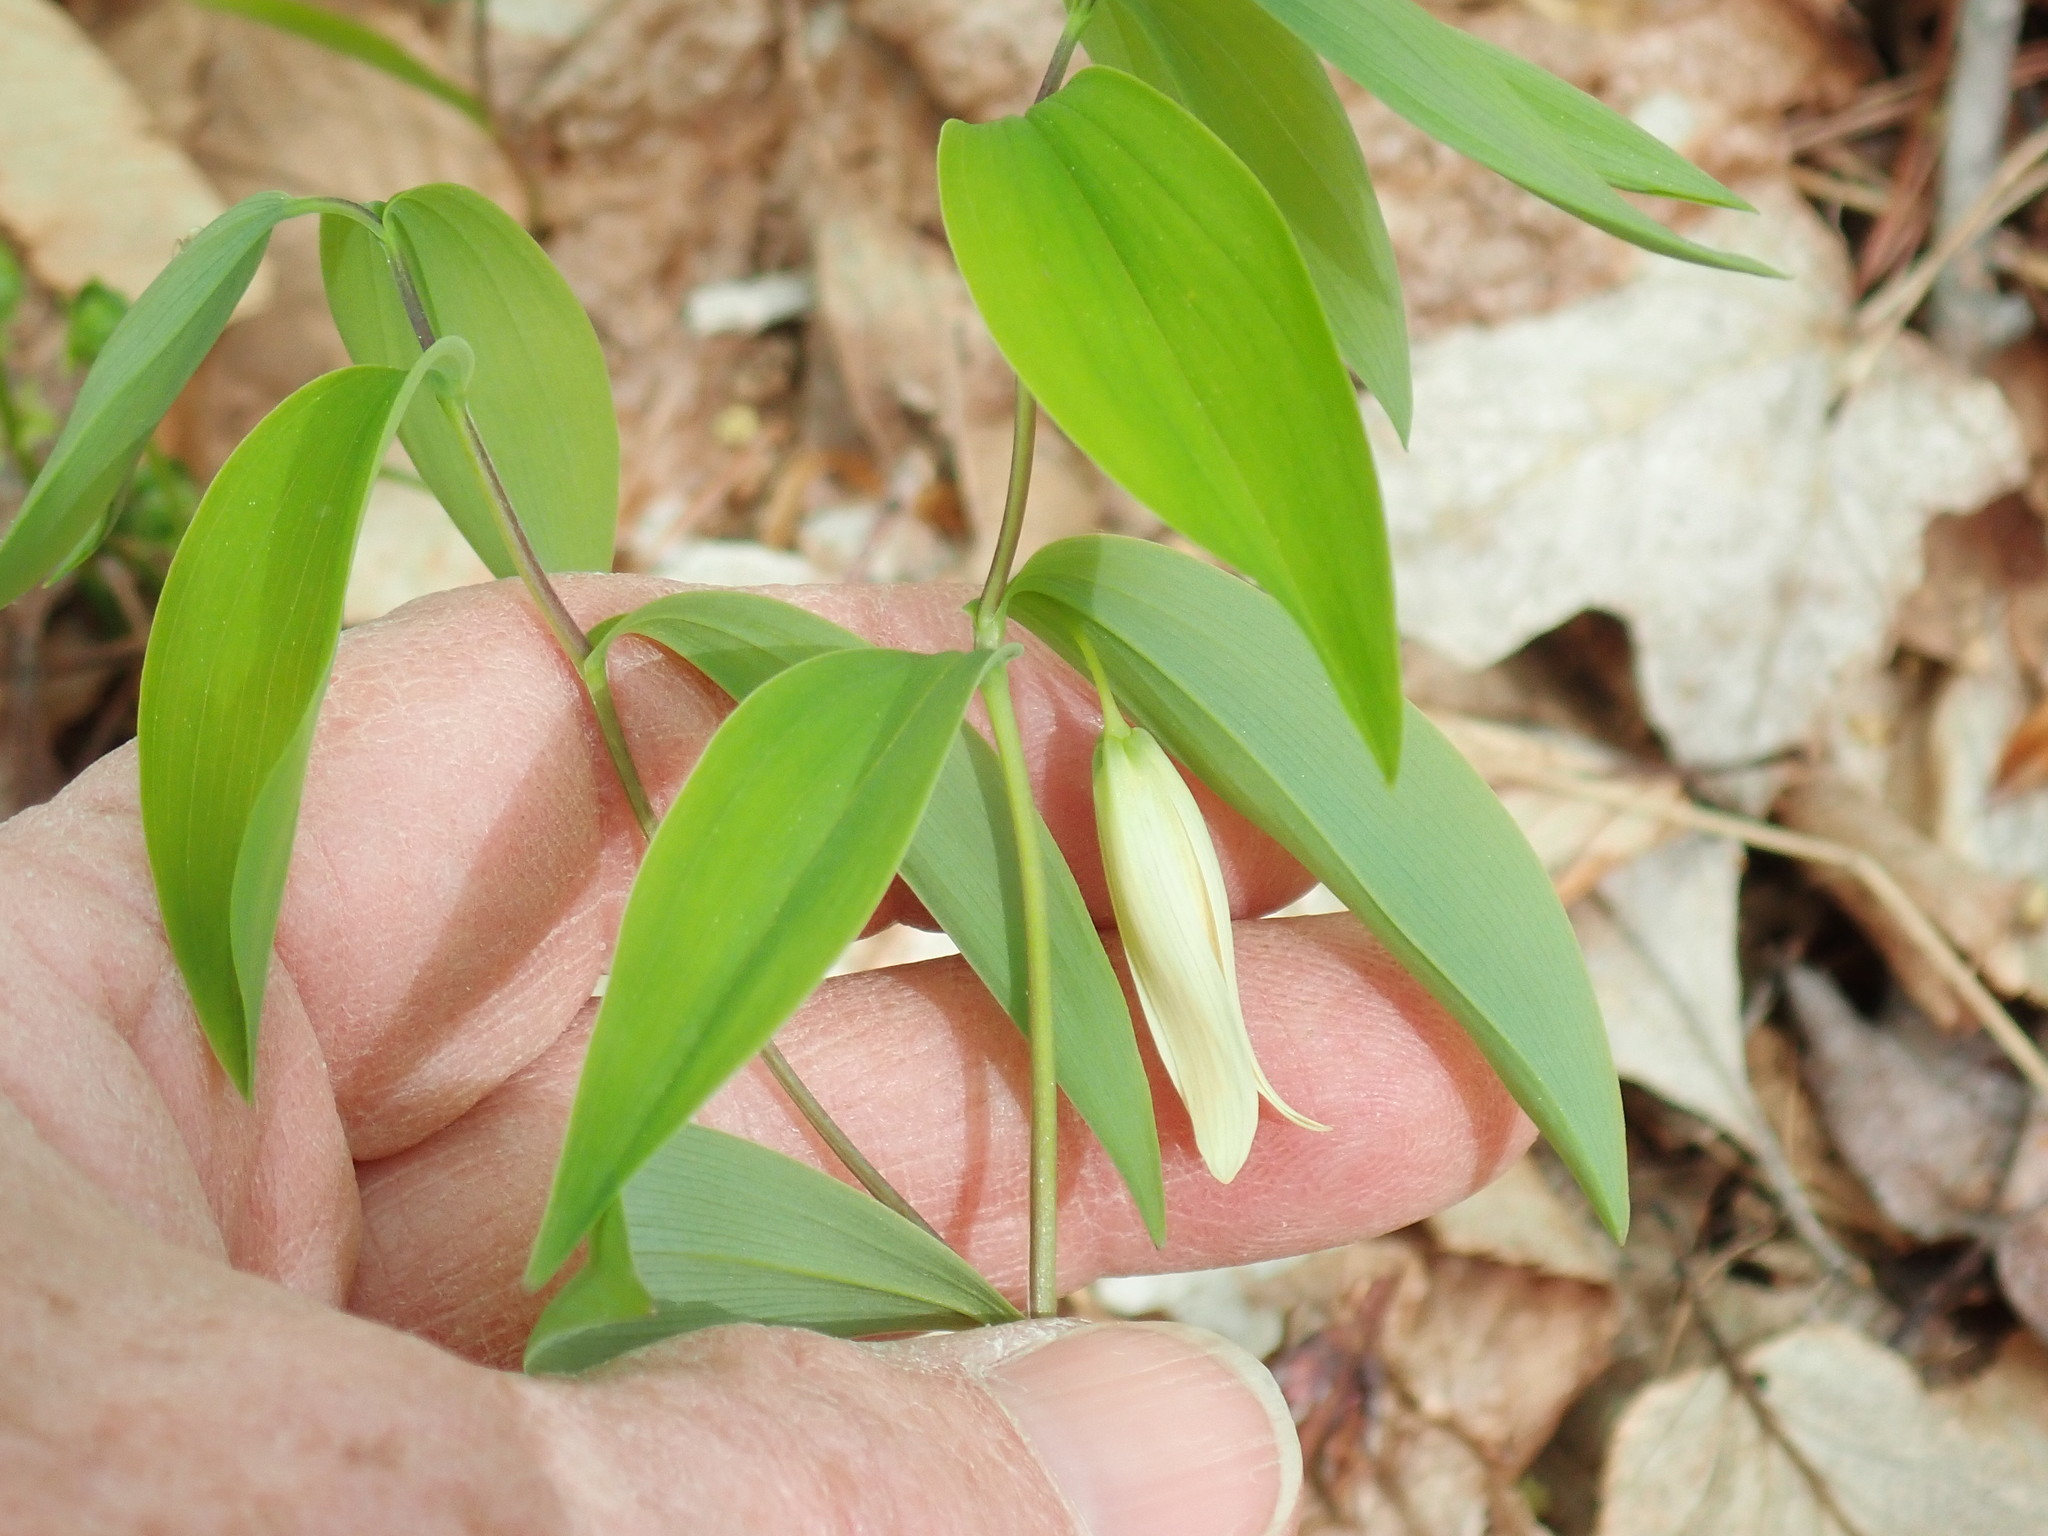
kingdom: Plantae
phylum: Tracheophyta
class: Liliopsida
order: Liliales
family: Colchicaceae
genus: Uvularia
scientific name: Uvularia sessilifolia
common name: Straw-lily
